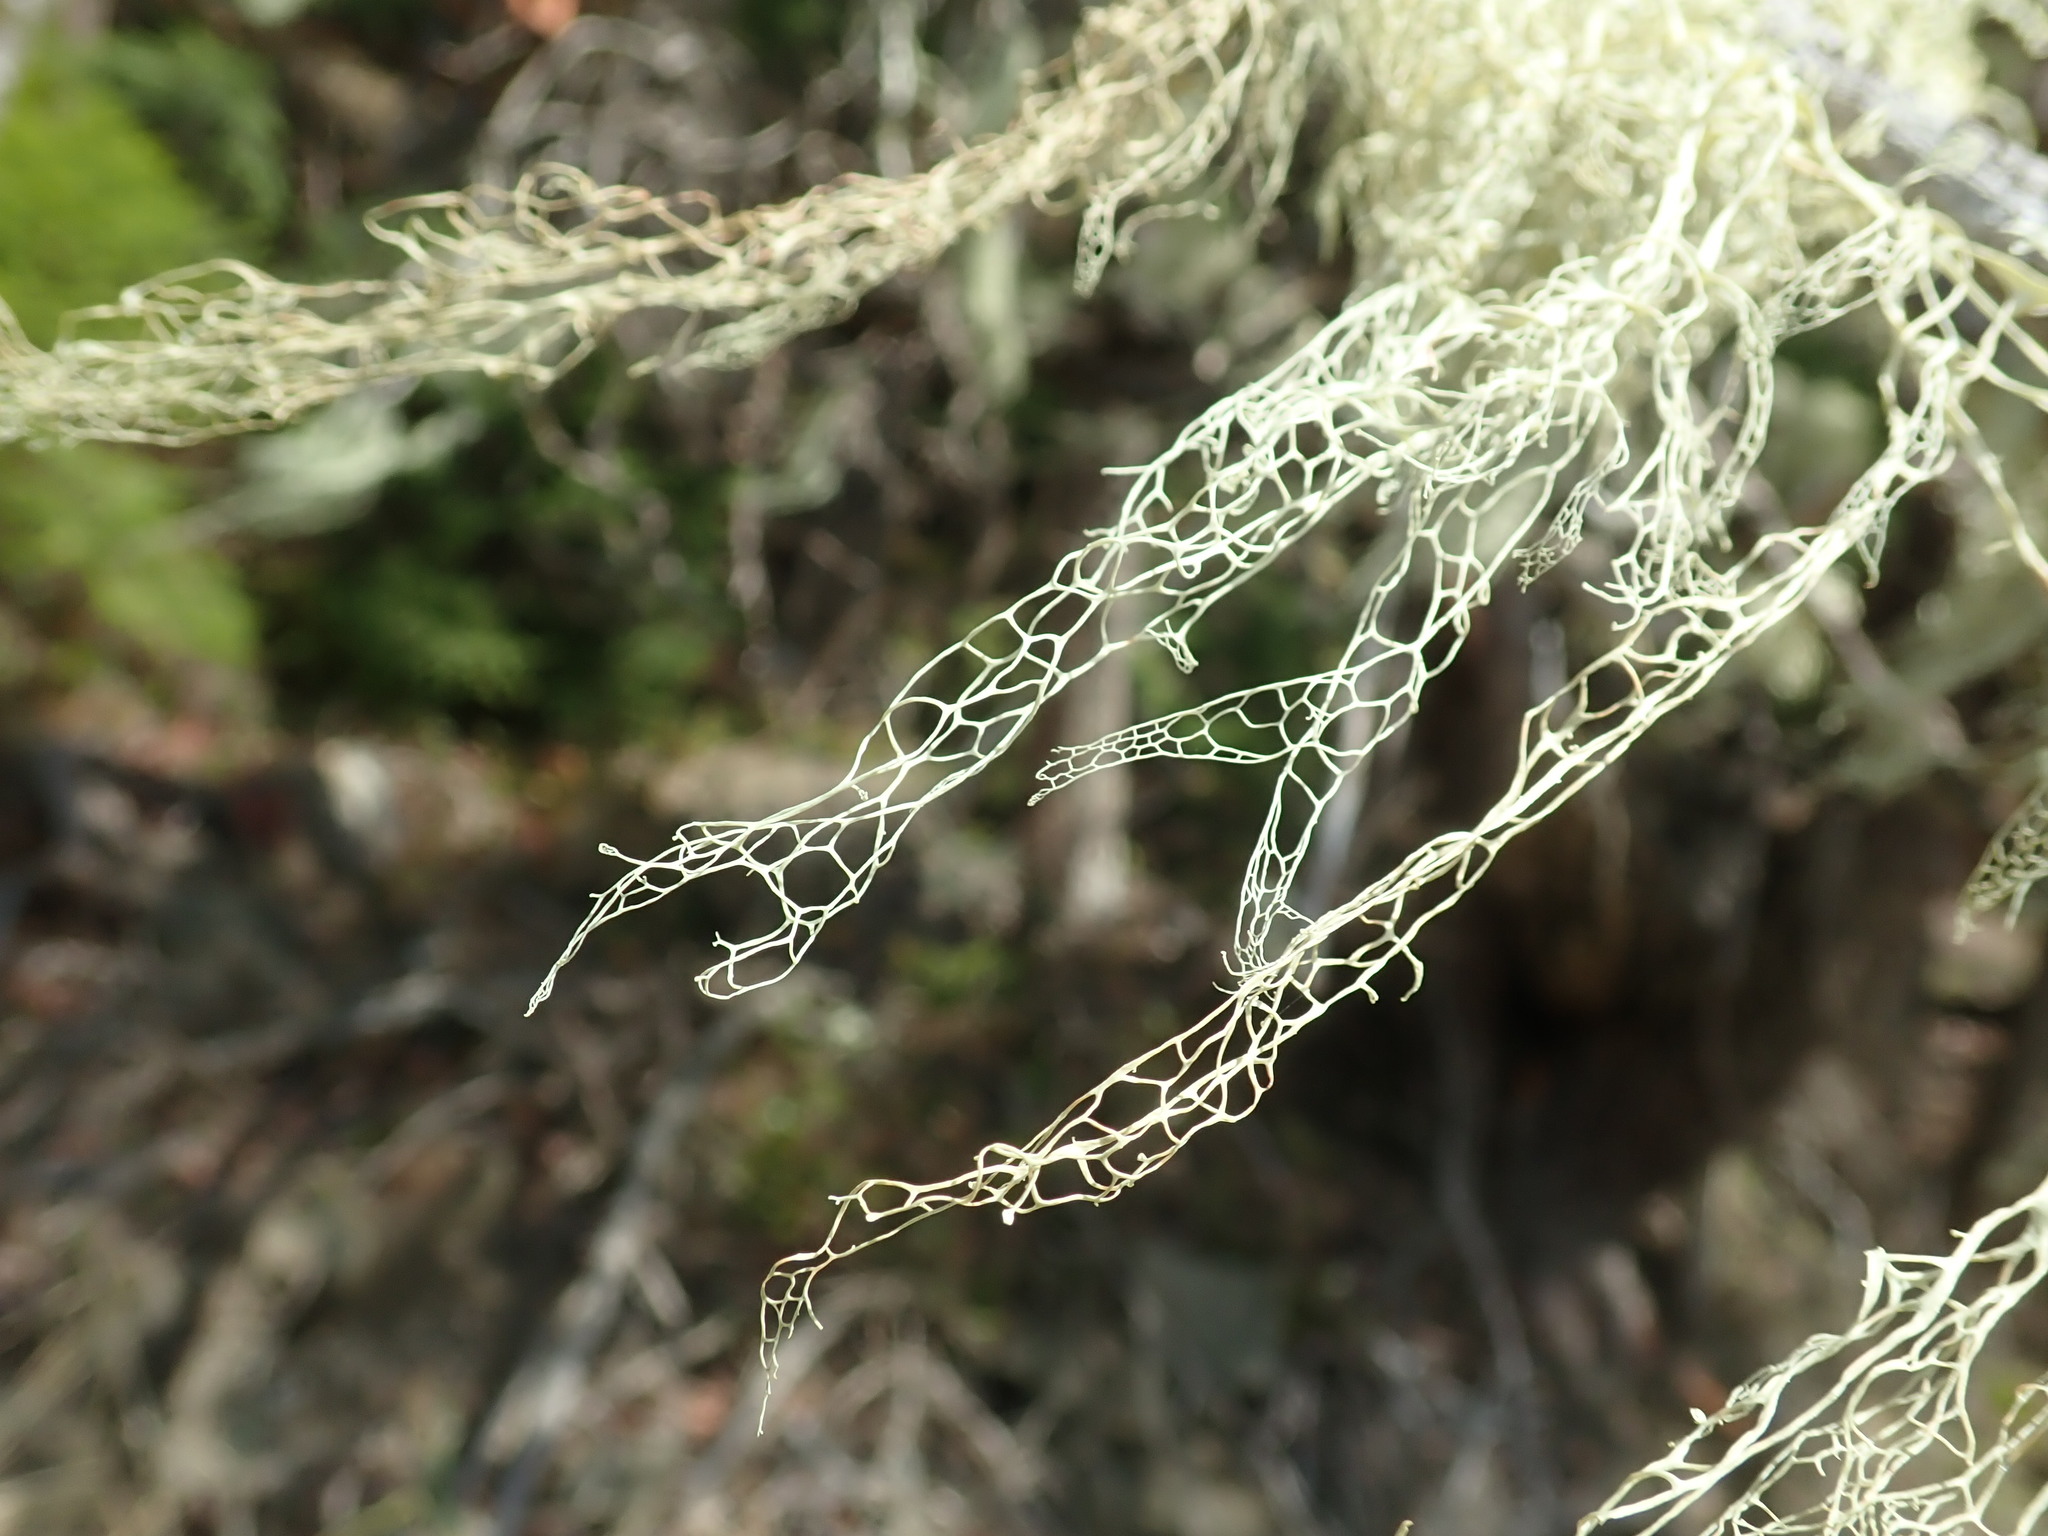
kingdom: Fungi
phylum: Ascomycota
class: Lecanoromycetes
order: Lecanorales
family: Ramalinaceae
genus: Ramalina
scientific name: Ramalina menziesii
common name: Lace lichen
